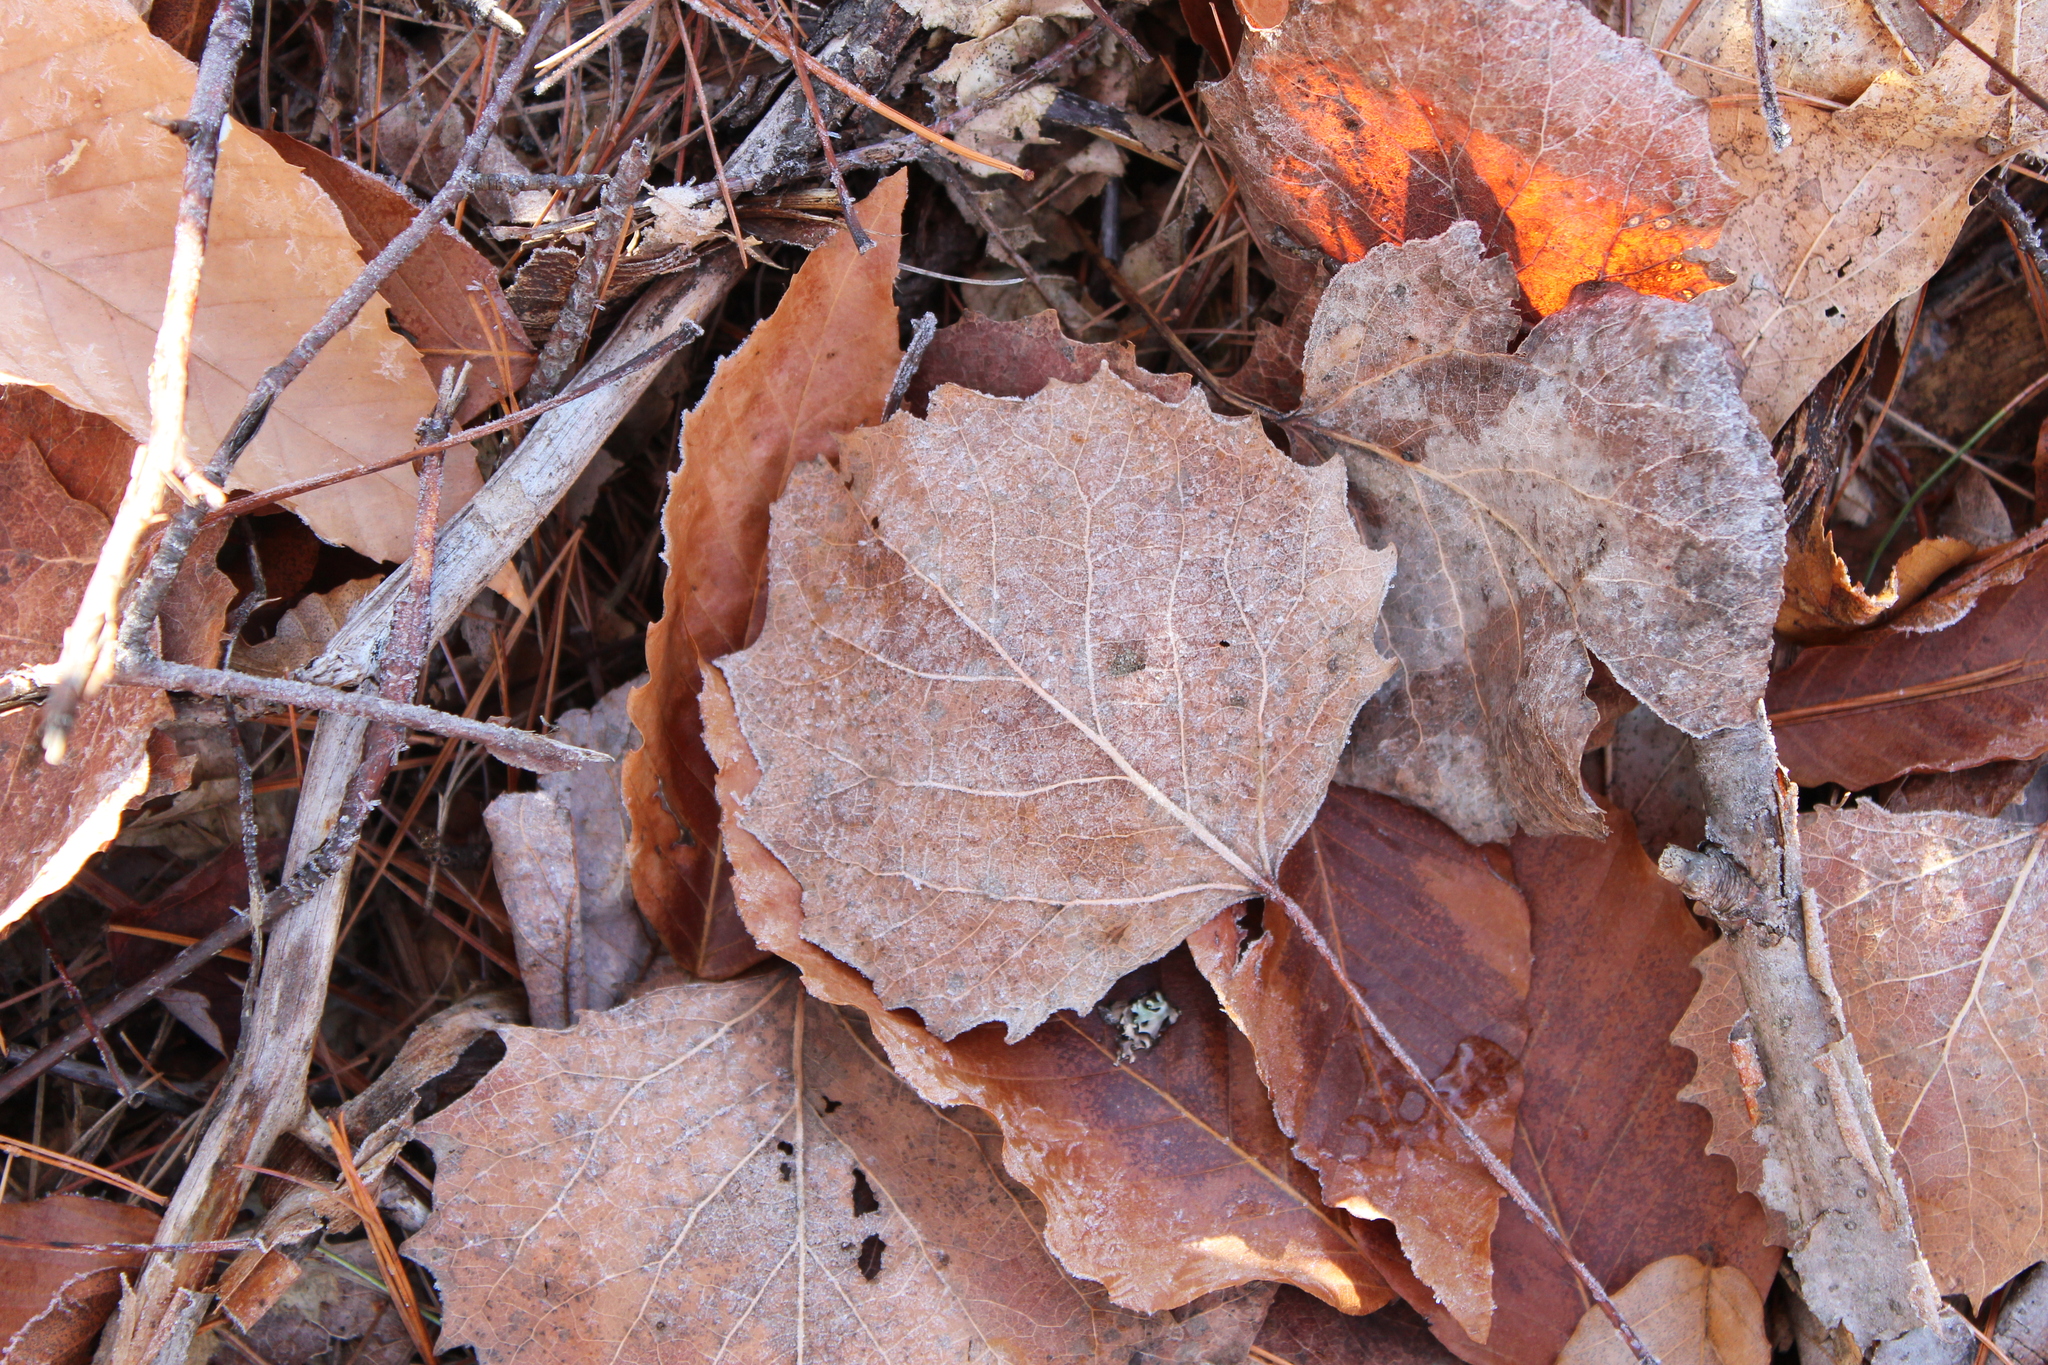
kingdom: Plantae
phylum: Tracheophyta
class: Magnoliopsida
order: Malpighiales
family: Salicaceae
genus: Populus
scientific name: Populus grandidentata
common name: Bigtooth aspen
